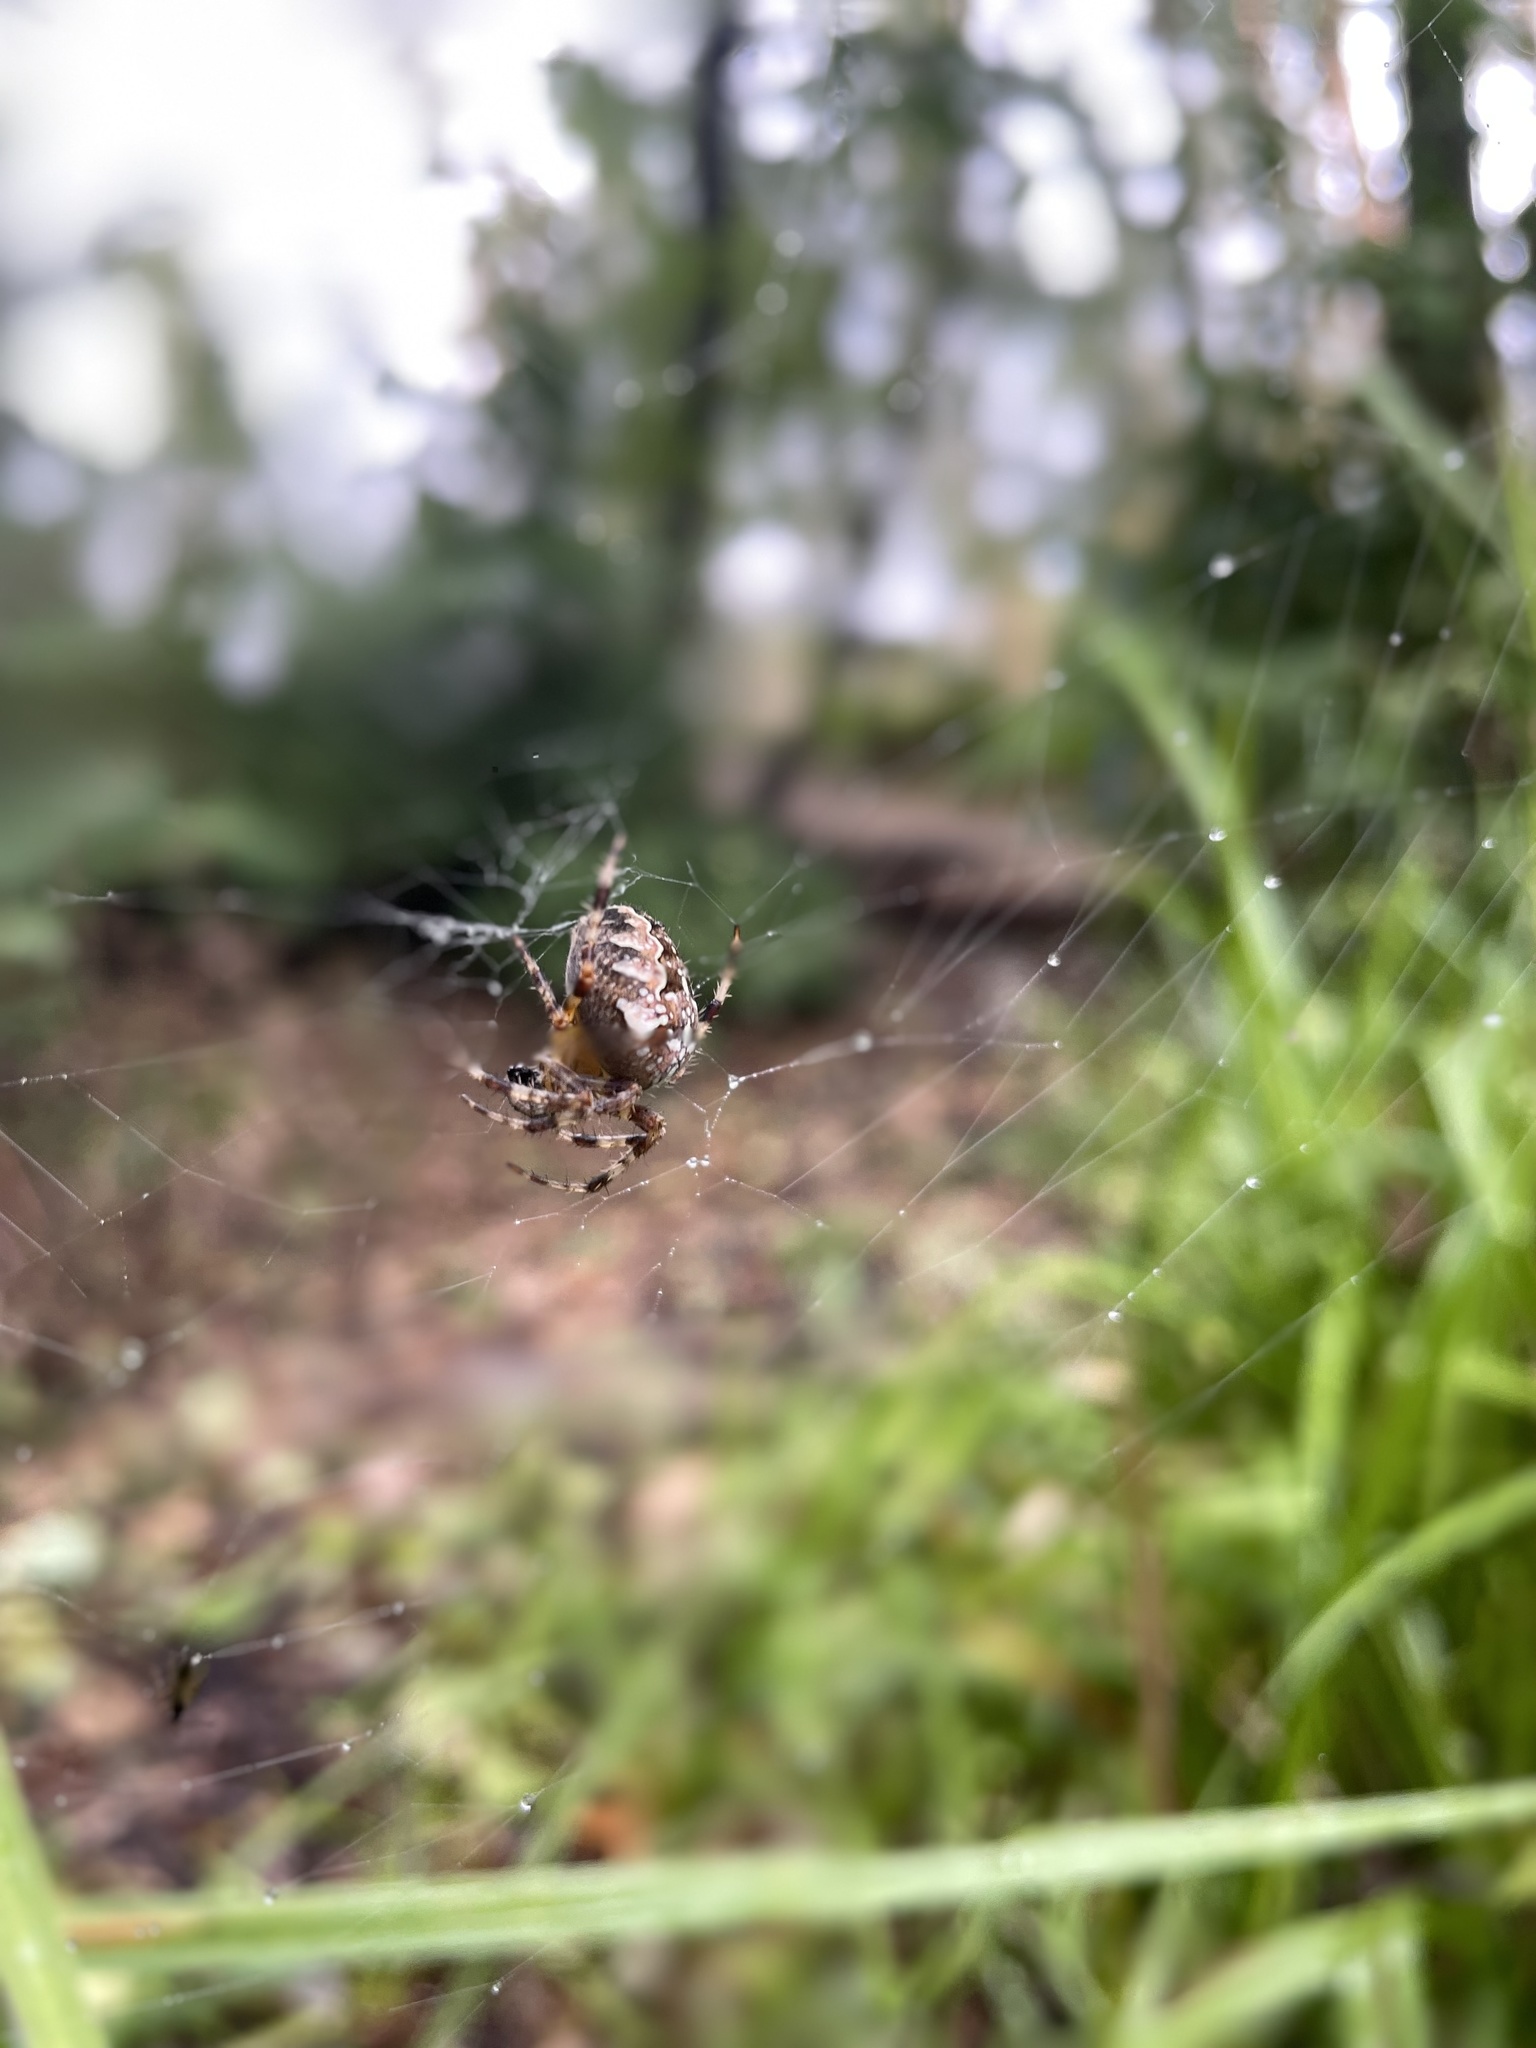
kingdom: Animalia
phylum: Arthropoda
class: Arachnida
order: Araneae
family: Araneidae
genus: Araneus
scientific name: Araneus diadematus
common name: Cross orbweaver
